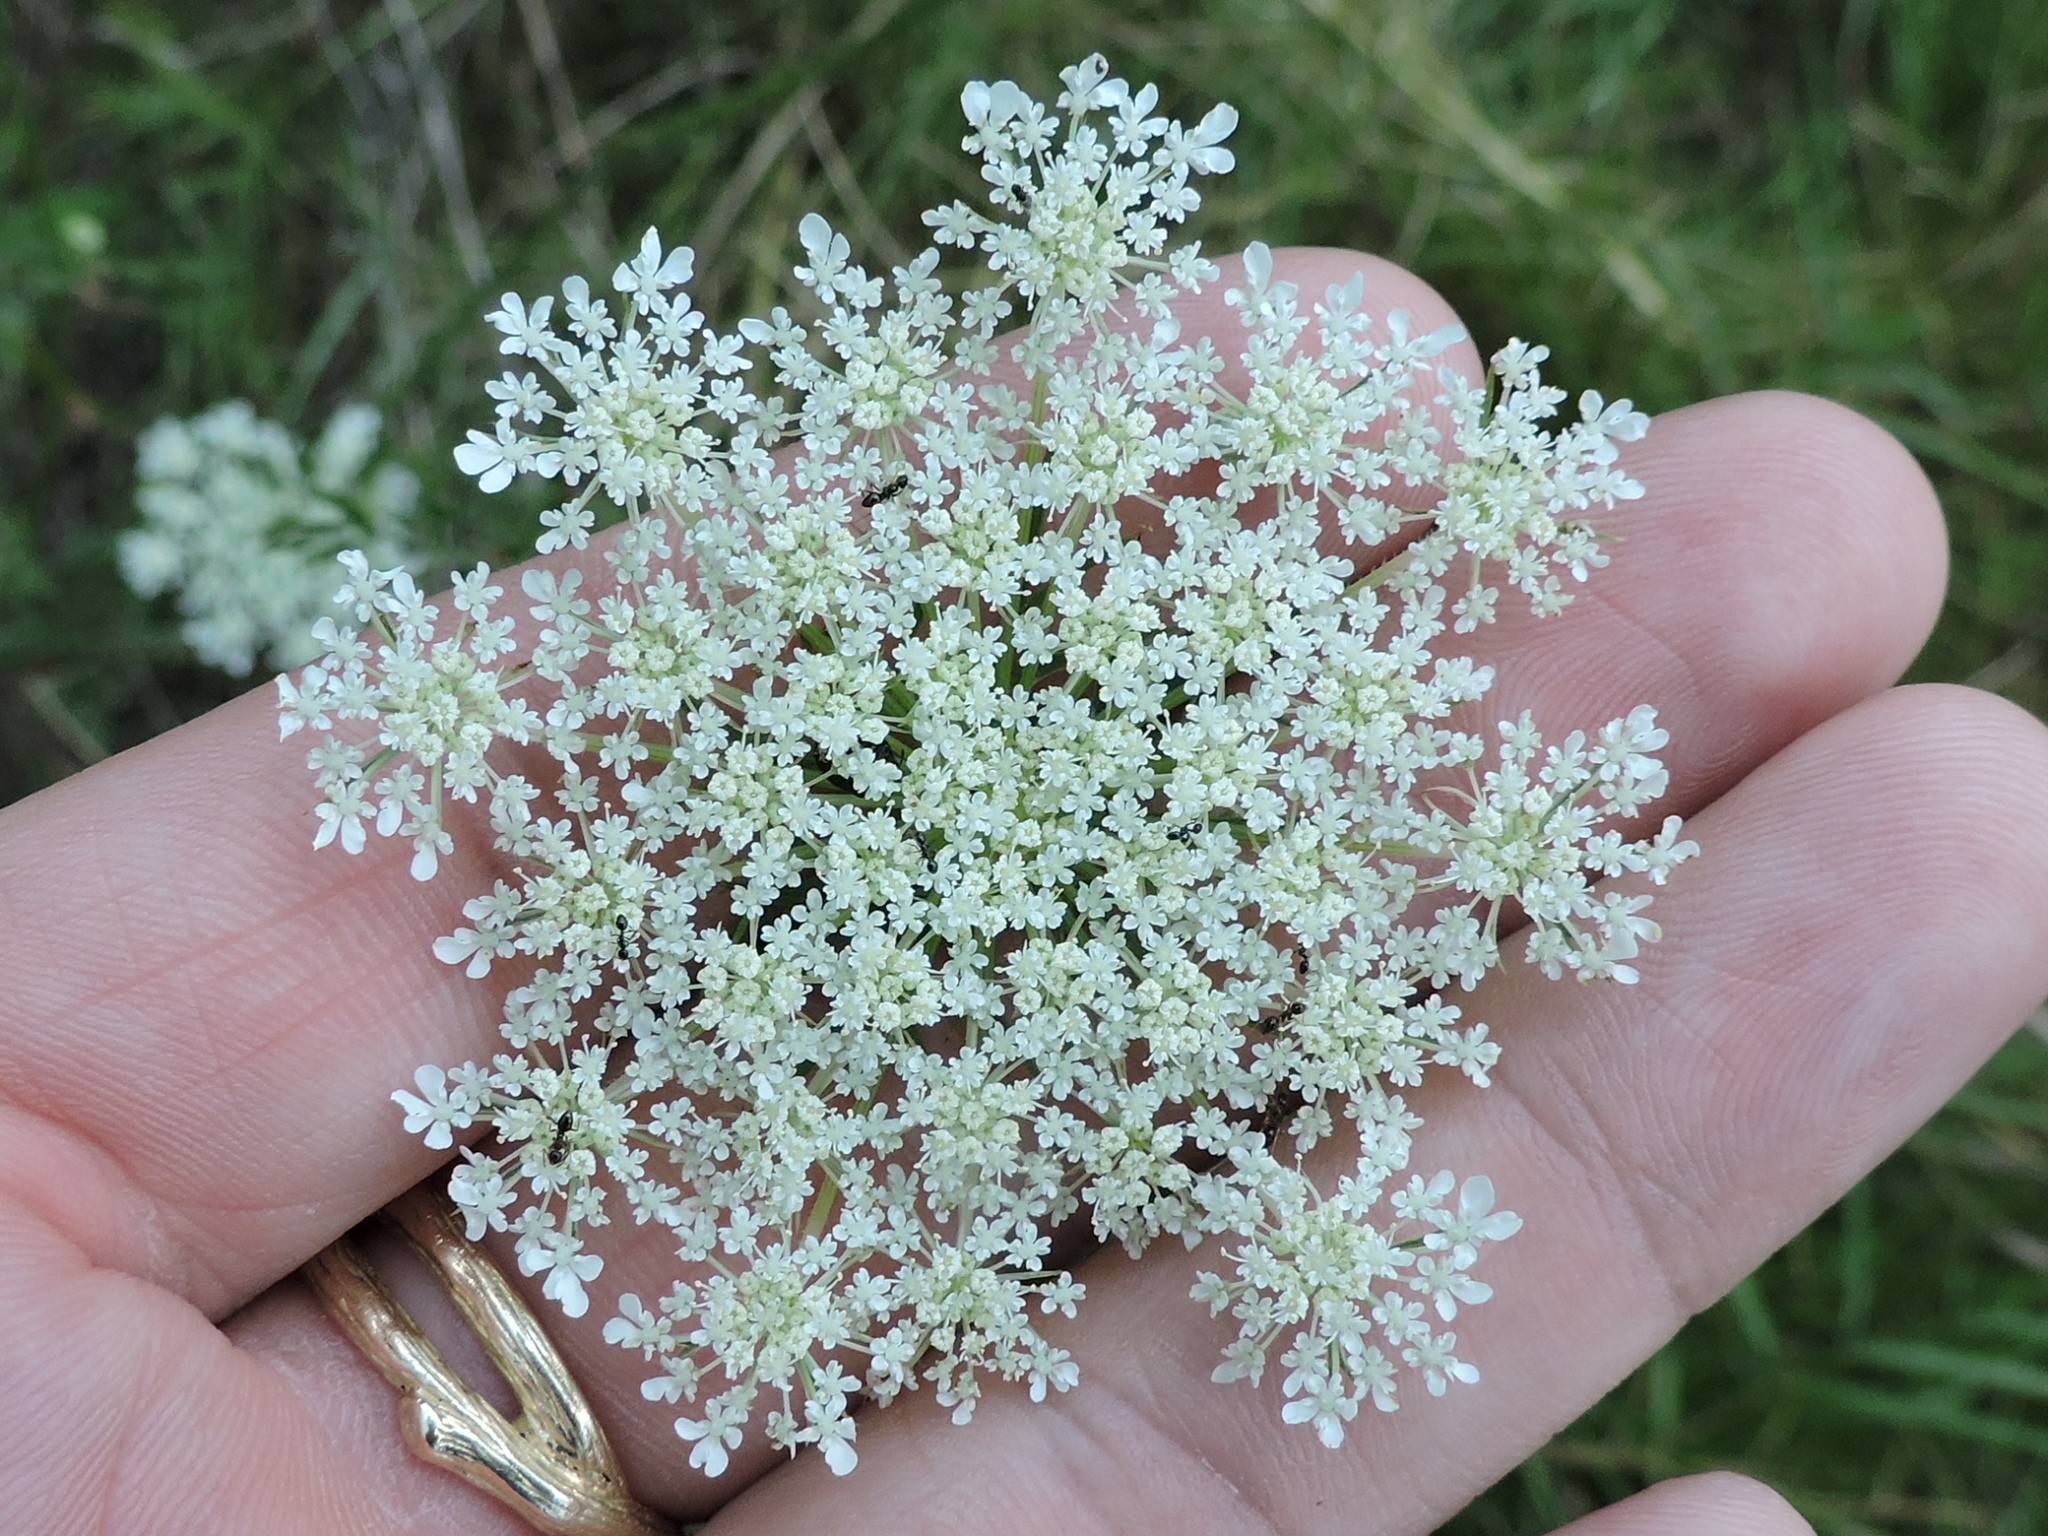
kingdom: Plantae
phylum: Tracheophyta
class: Magnoliopsida
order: Apiales
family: Apiaceae
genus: Daucus
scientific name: Daucus carota
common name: Wild carrot
